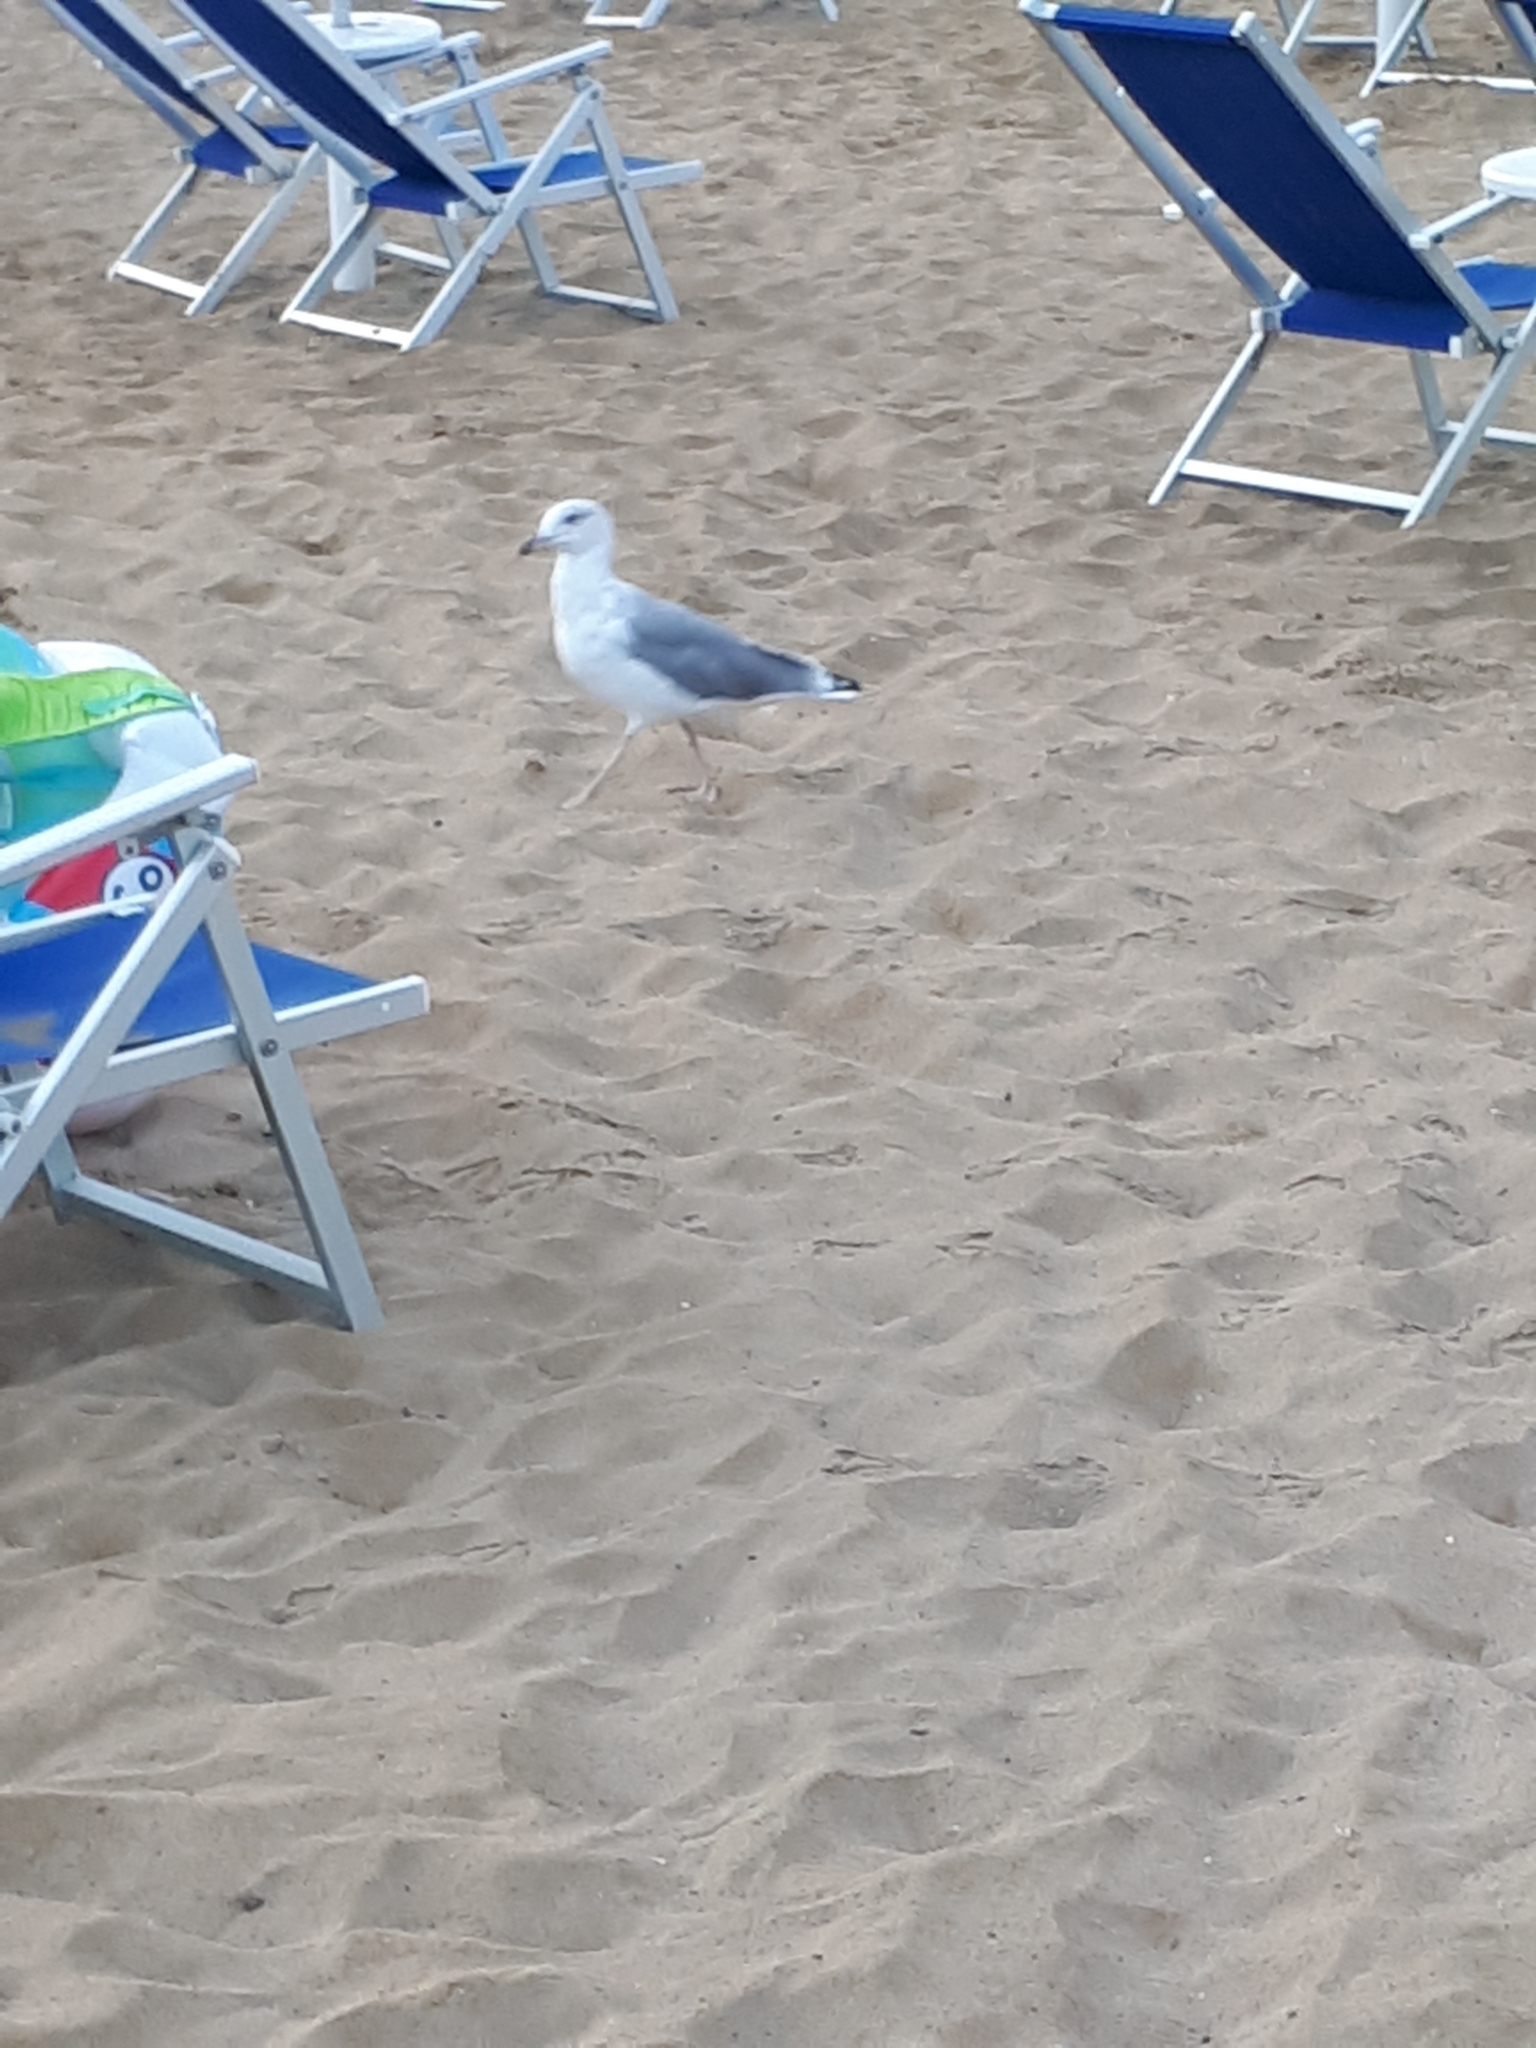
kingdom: Animalia
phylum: Chordata
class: Aves
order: Charadriiformes
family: Laridae
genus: Larus
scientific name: Larus michahellis
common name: Yellow-legged gull
